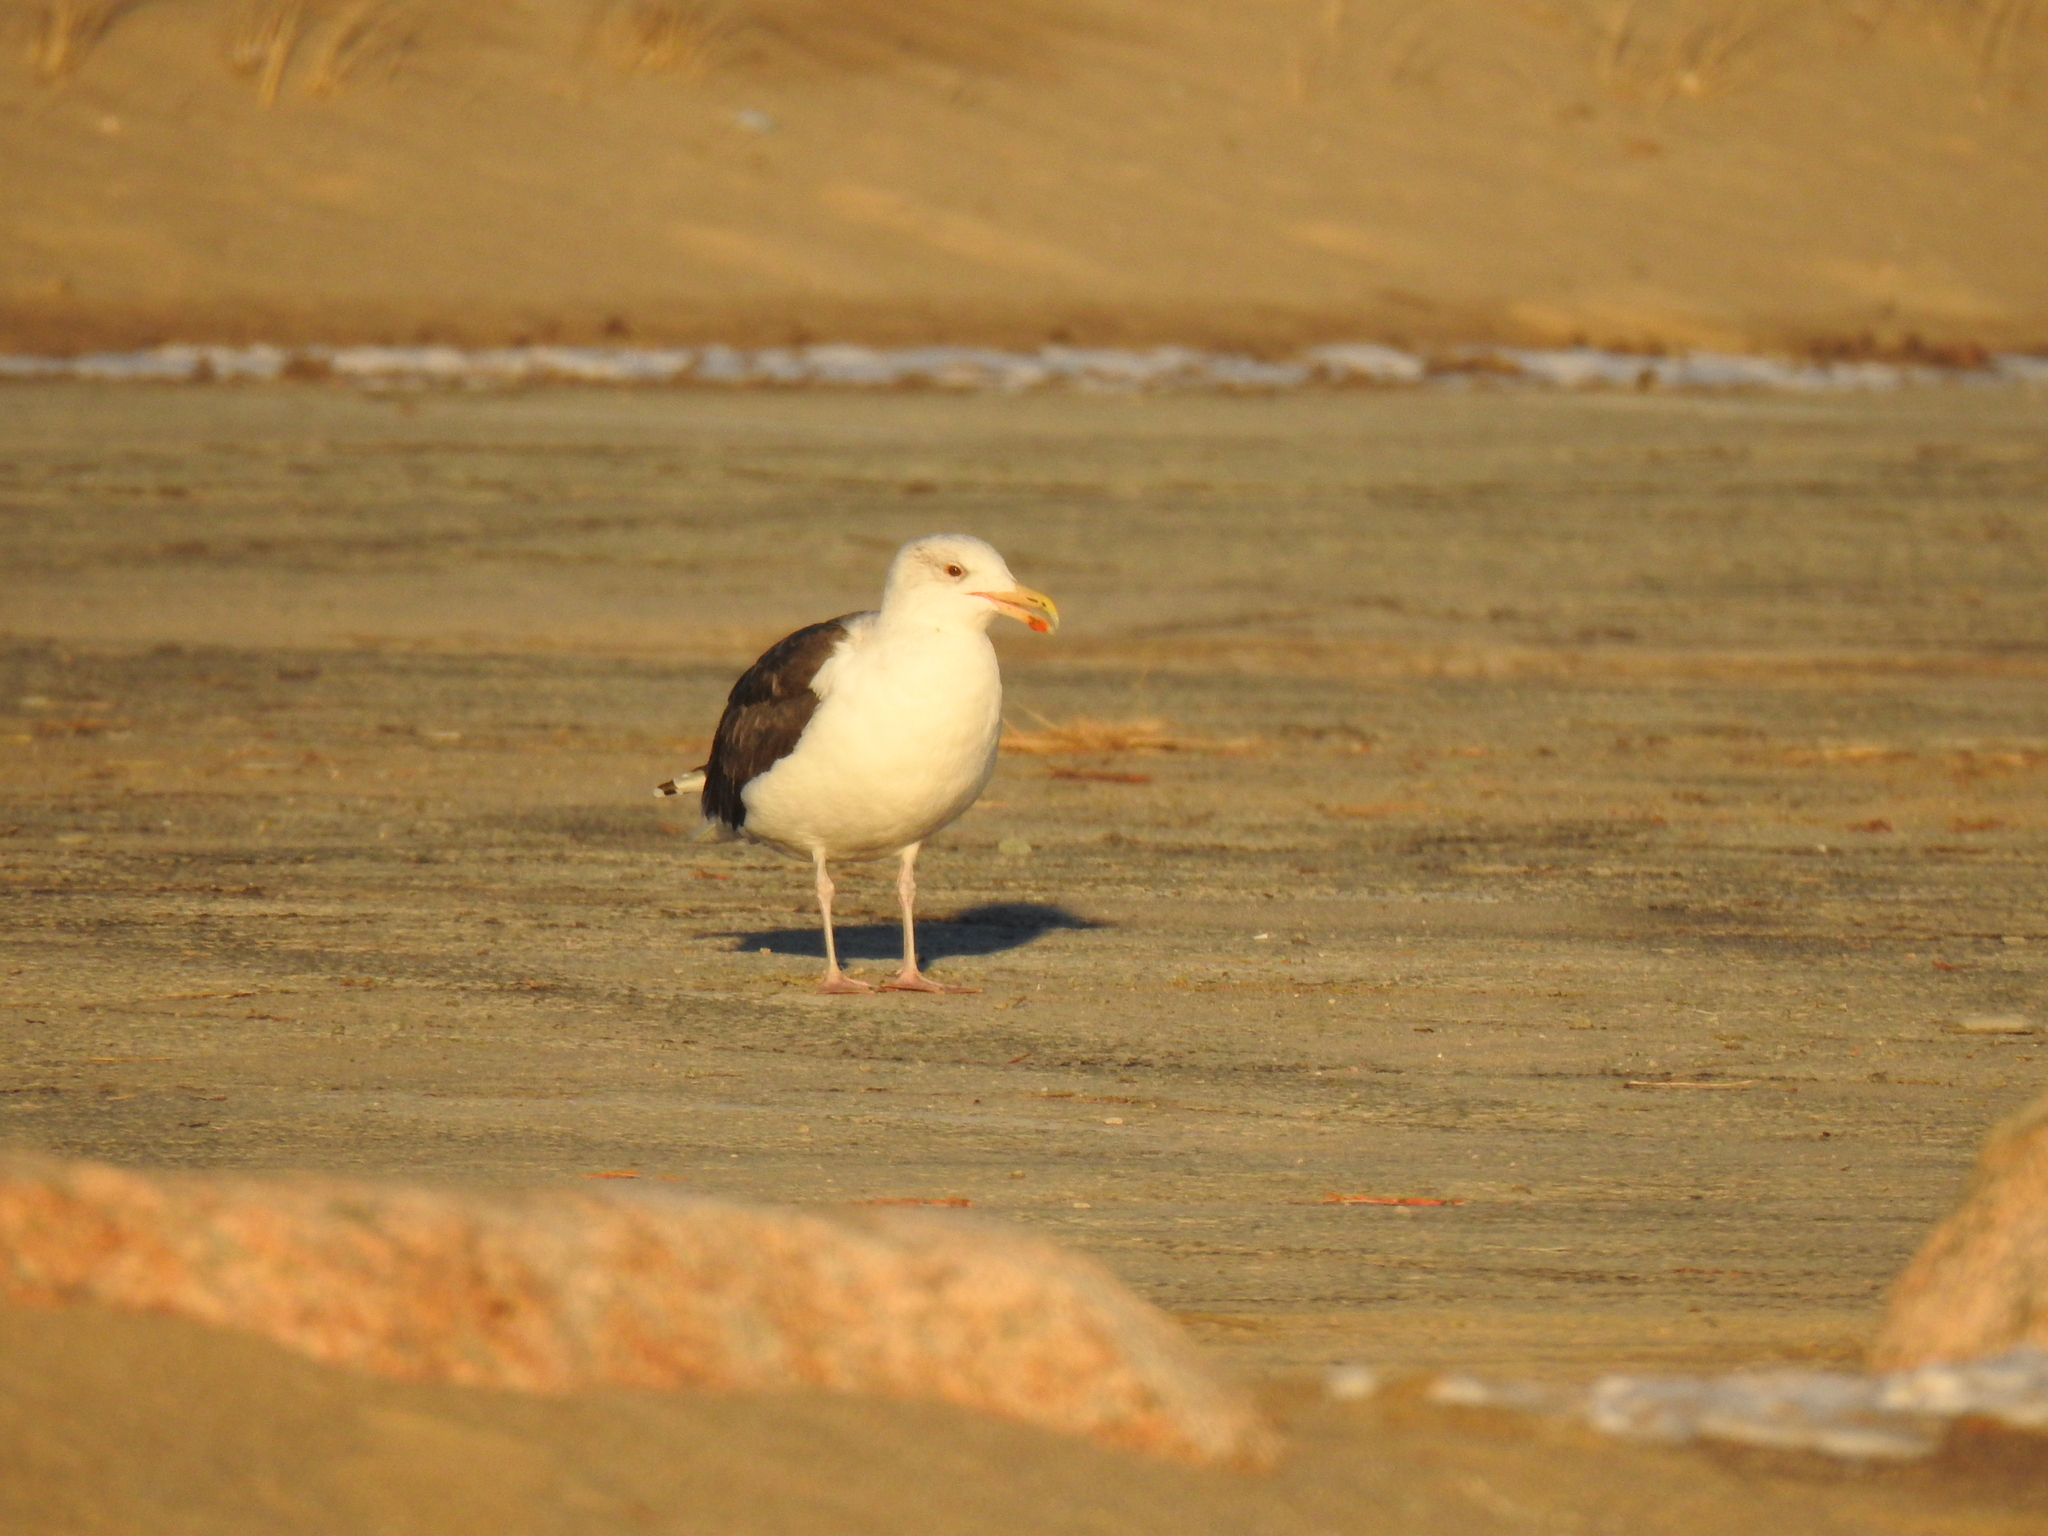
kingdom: Animalia
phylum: Chordata
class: Aves
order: Charadriiformes
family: Laridae
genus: Larus
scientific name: Larus marinus
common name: Great black-backed gull
